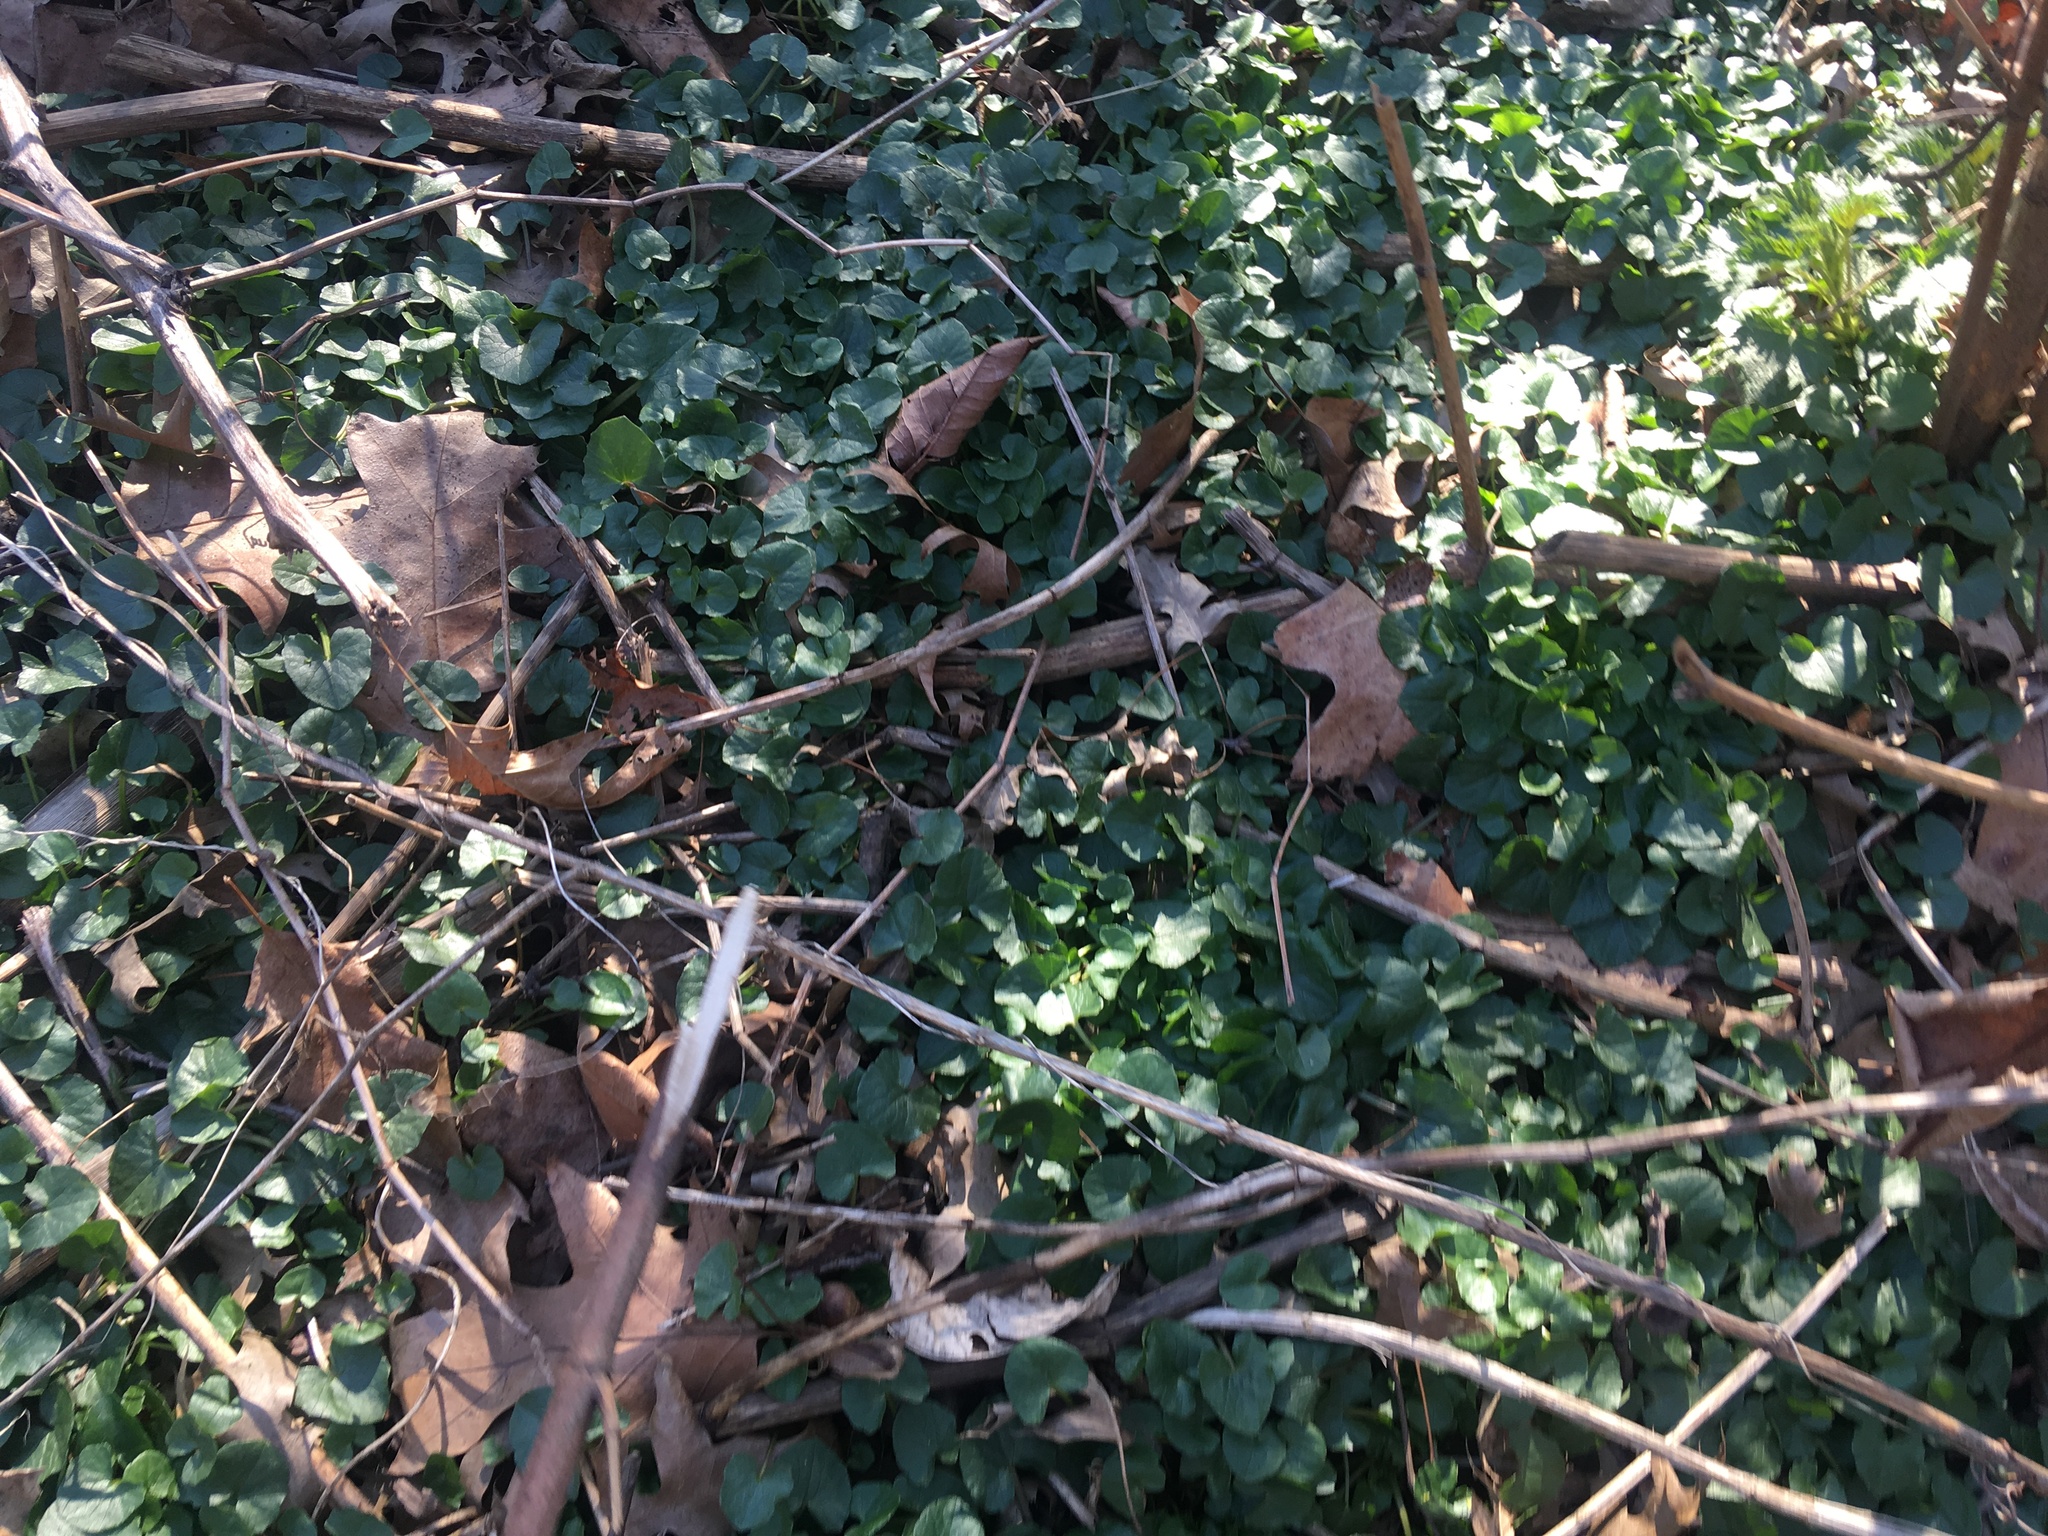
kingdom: Plantae
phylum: Tracheophyta
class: Magnoliopsida
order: Ranunculales
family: Ranunculaceae
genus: Ficaria
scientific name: Ficaria verna
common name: Lesser celandine
